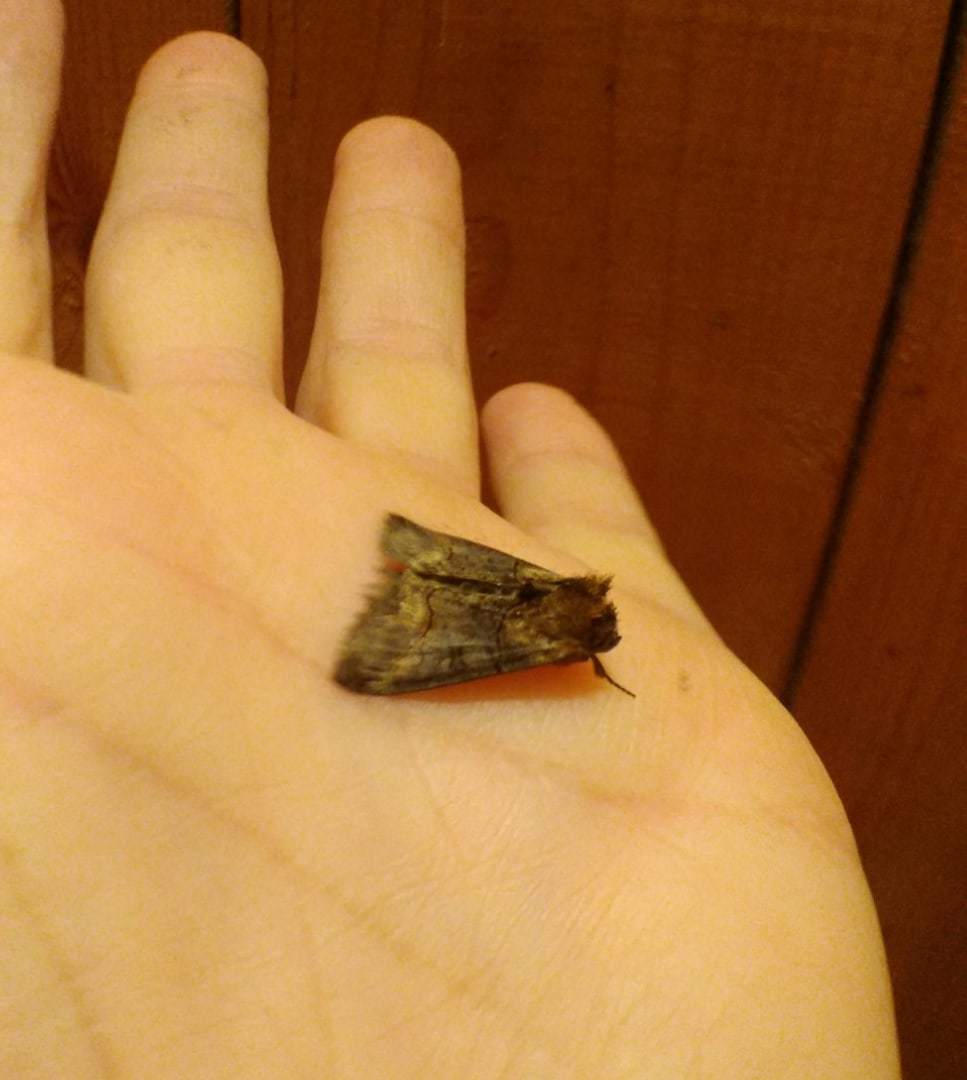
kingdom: Animalia
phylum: Arthropoda
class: Insecta
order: Lepidoptera
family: Noctuidae
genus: Abrostola
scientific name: Abrostola triplasia
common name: Dark spectacle
